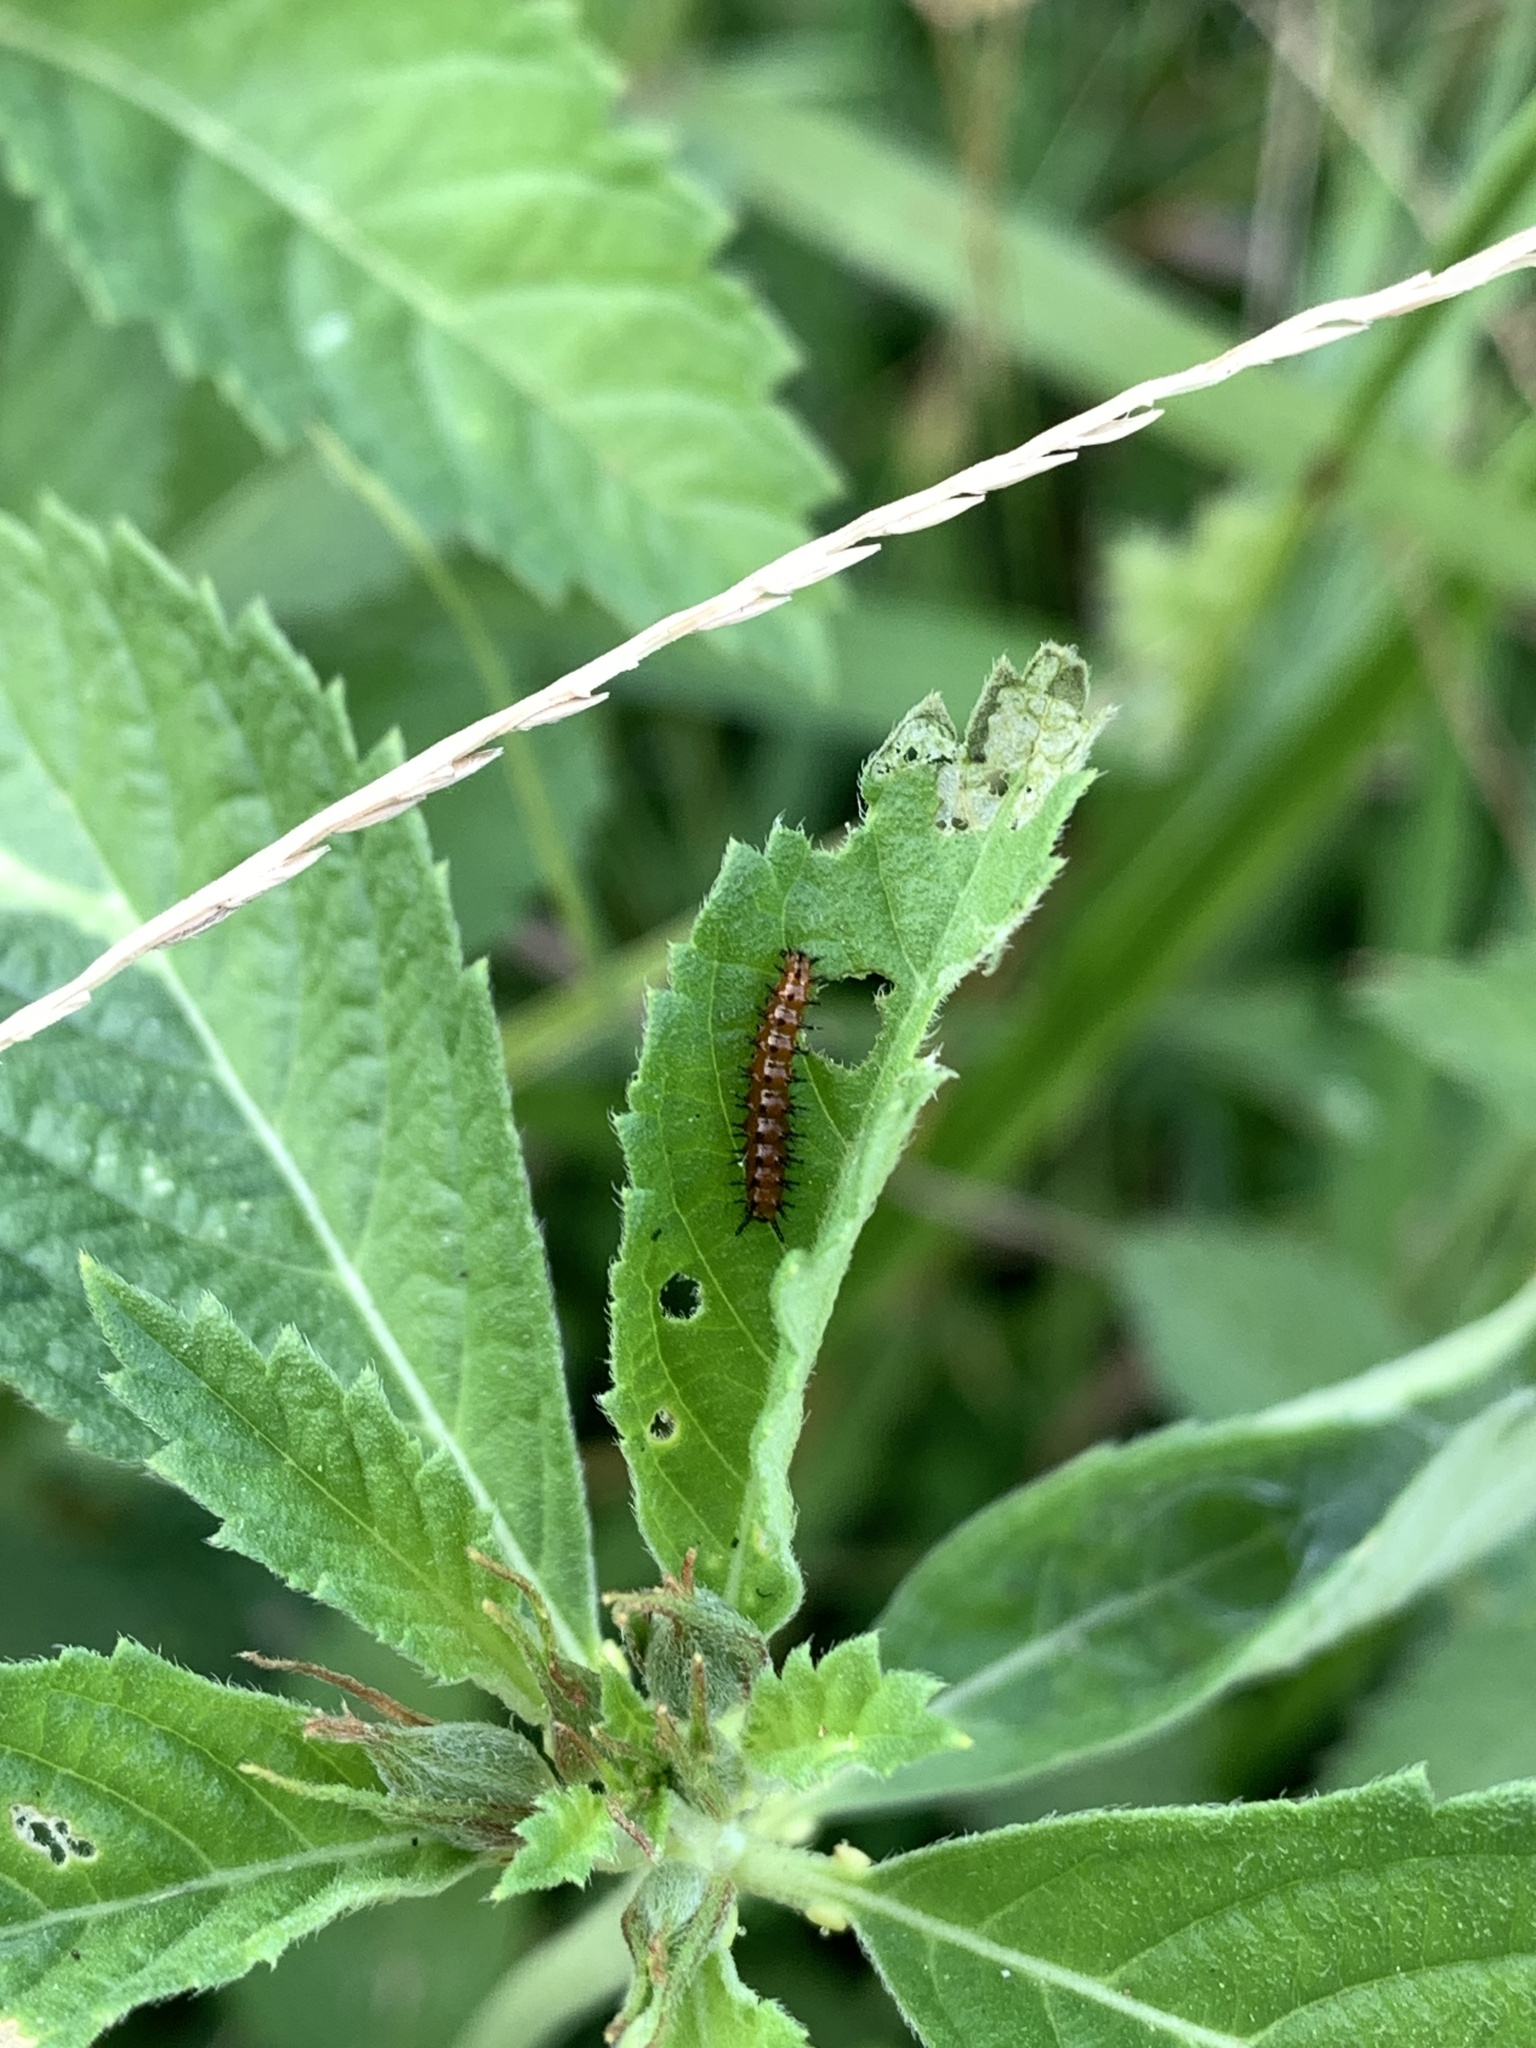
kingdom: Animalia
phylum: Arthropoda
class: Insecta
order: Lepidoptera
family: Nymphalidae
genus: Dione
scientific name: Dione vanillae
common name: Gulf fritillary
